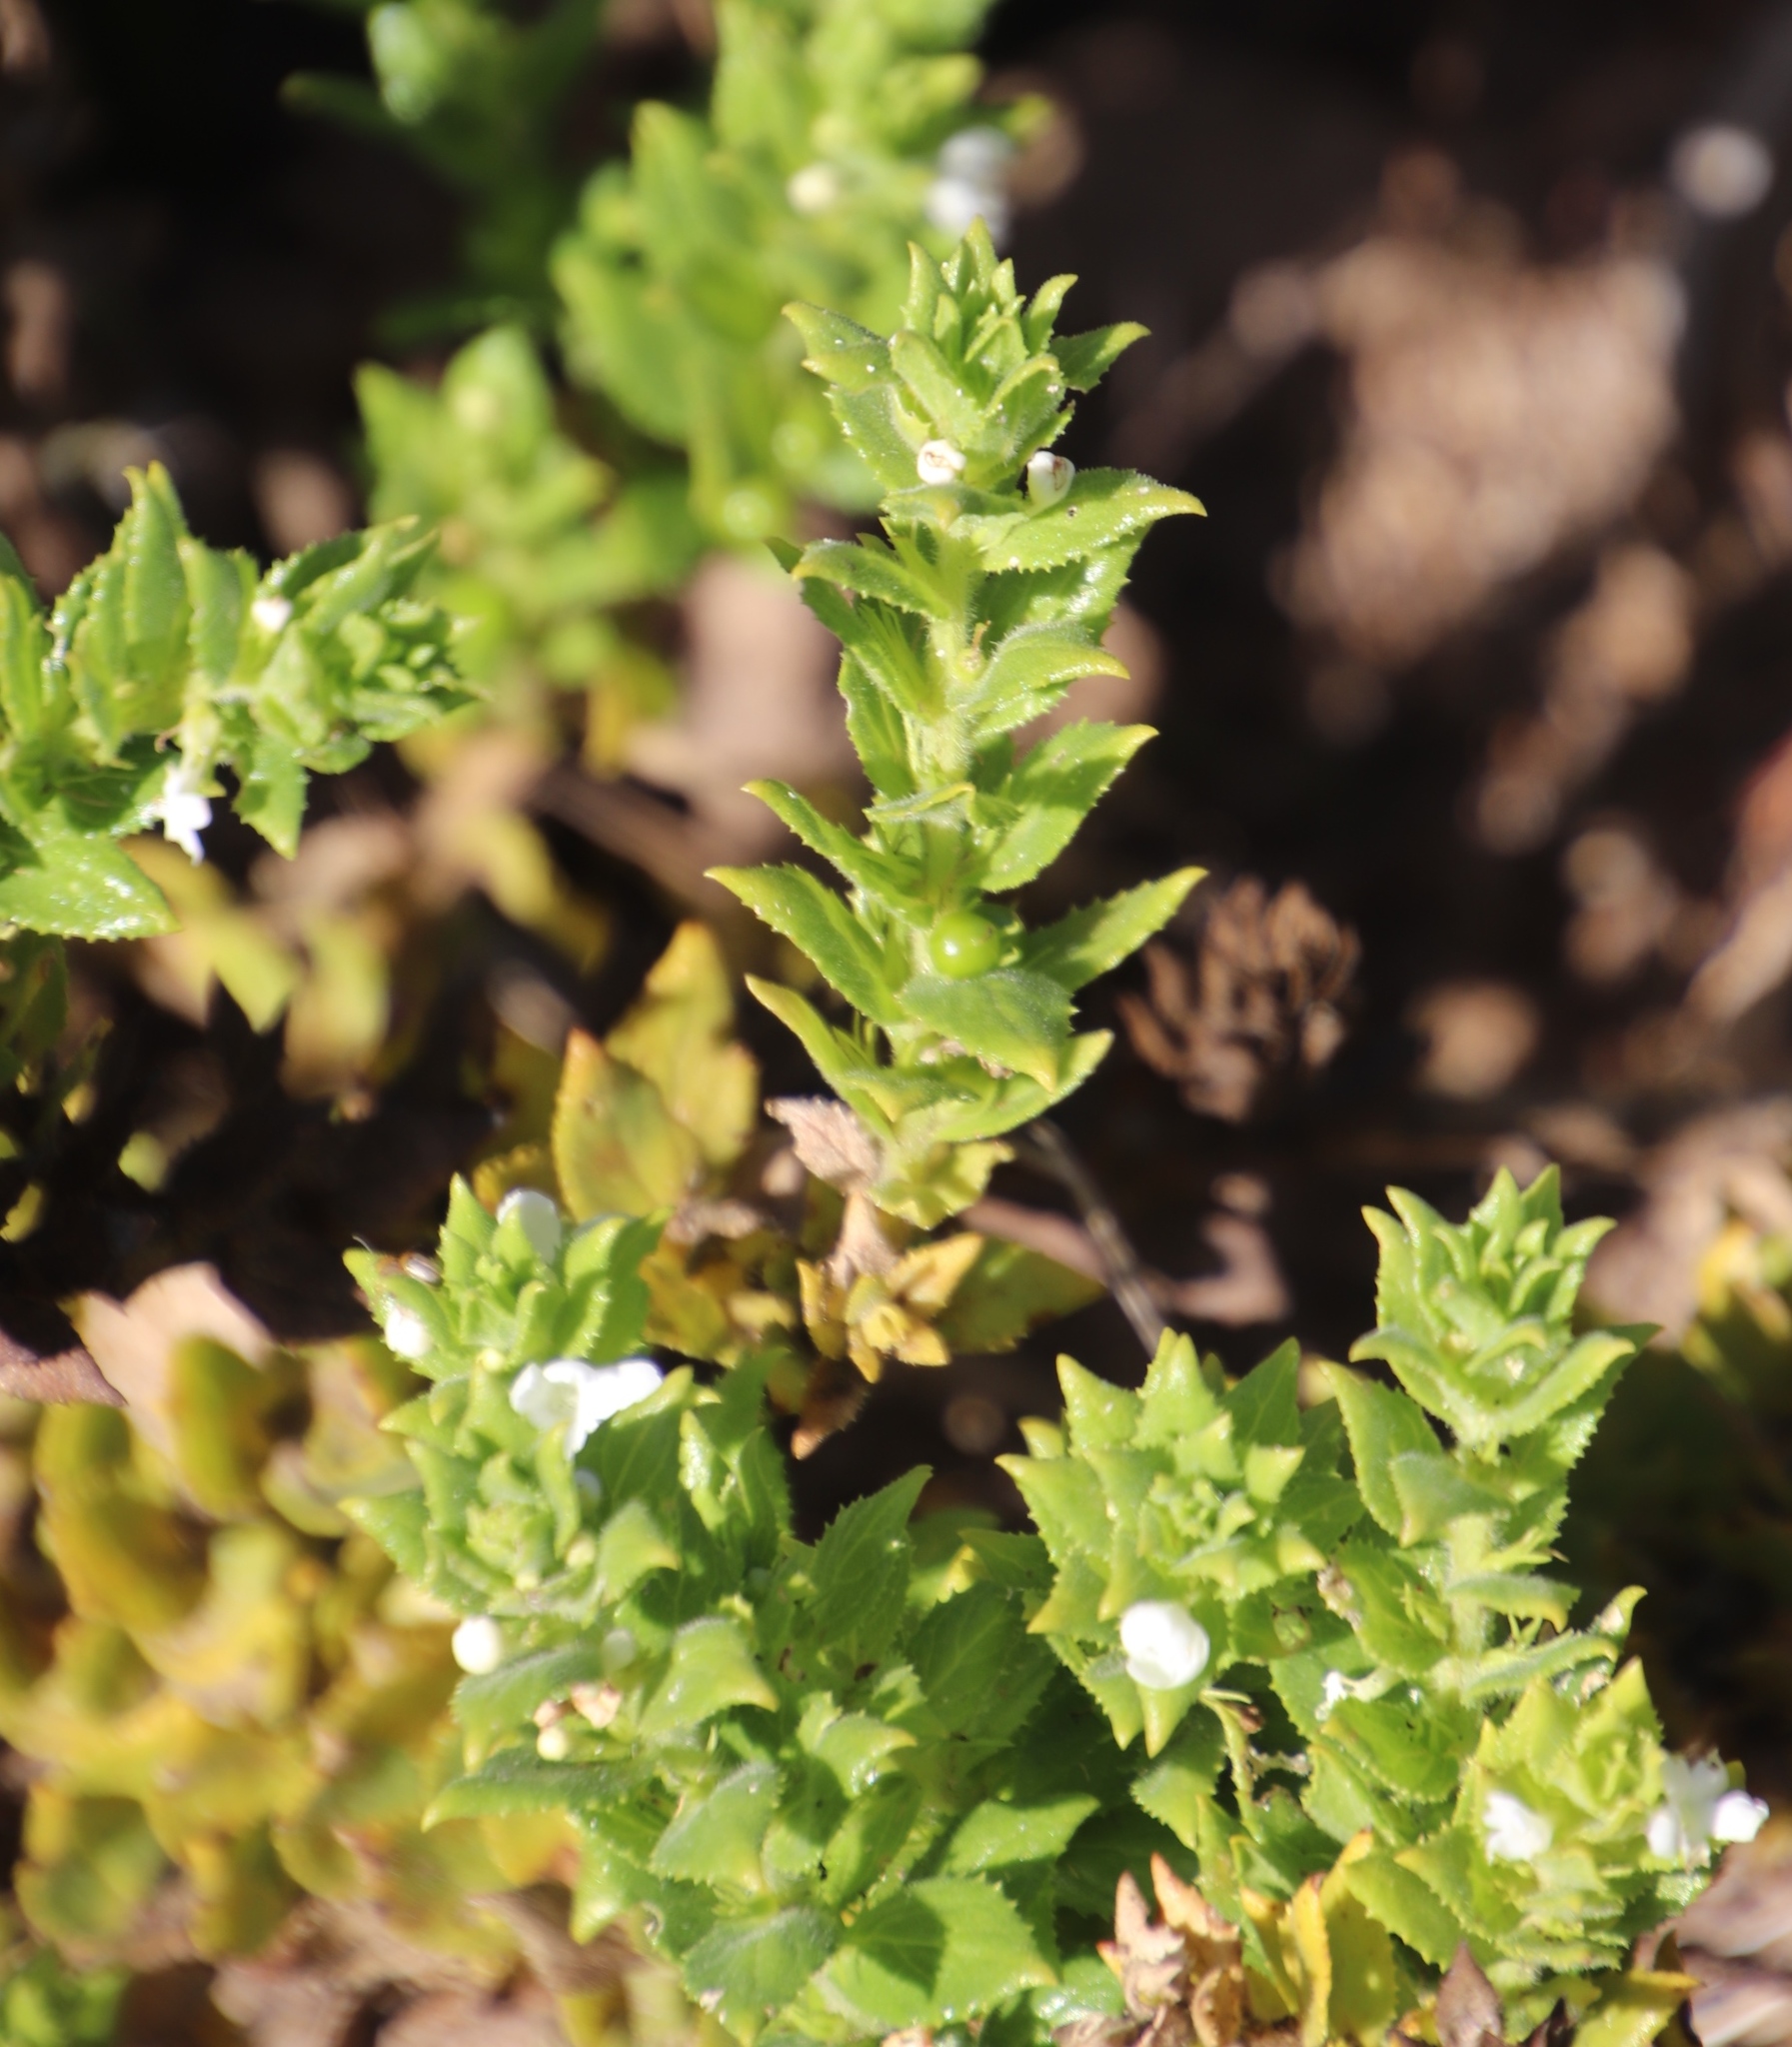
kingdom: Plantae
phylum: Tracheophyta
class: Magnoliopsida
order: Lamiales
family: Scrophulariaceae
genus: Oftia
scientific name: Oftia africana
